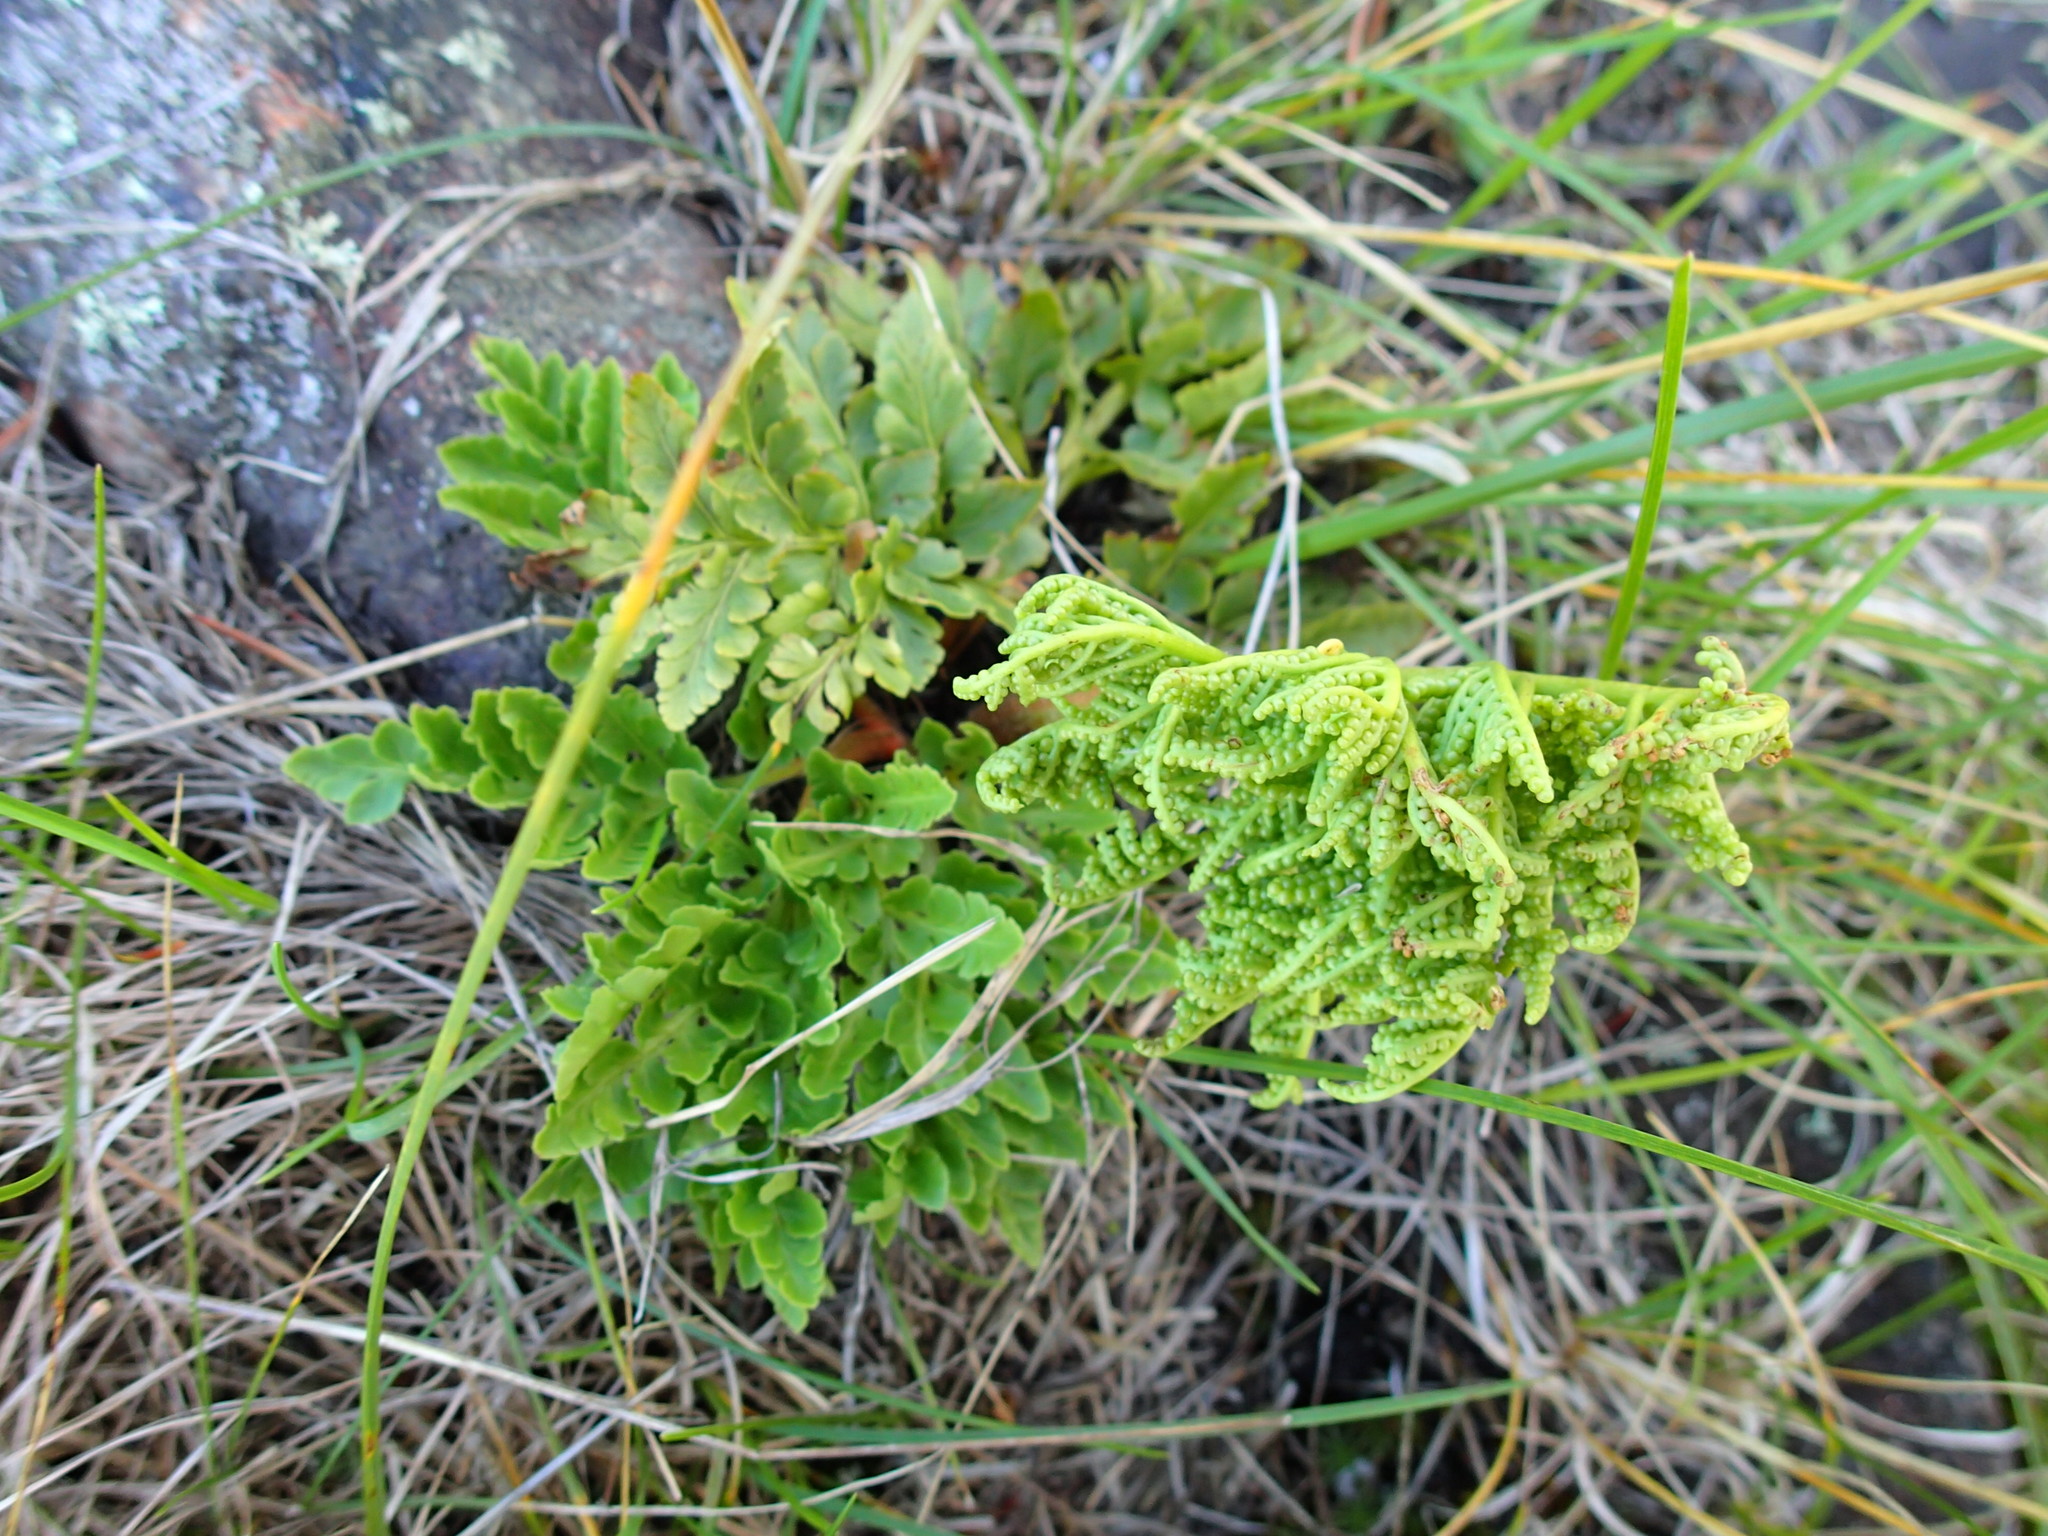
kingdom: Plantae
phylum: Tracheophyta
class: Polypodiopsida
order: Ophioglossales
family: Ophioglossaceae
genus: Sceptridium
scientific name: Sceptridium multifidum
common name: Leathery grape fern
